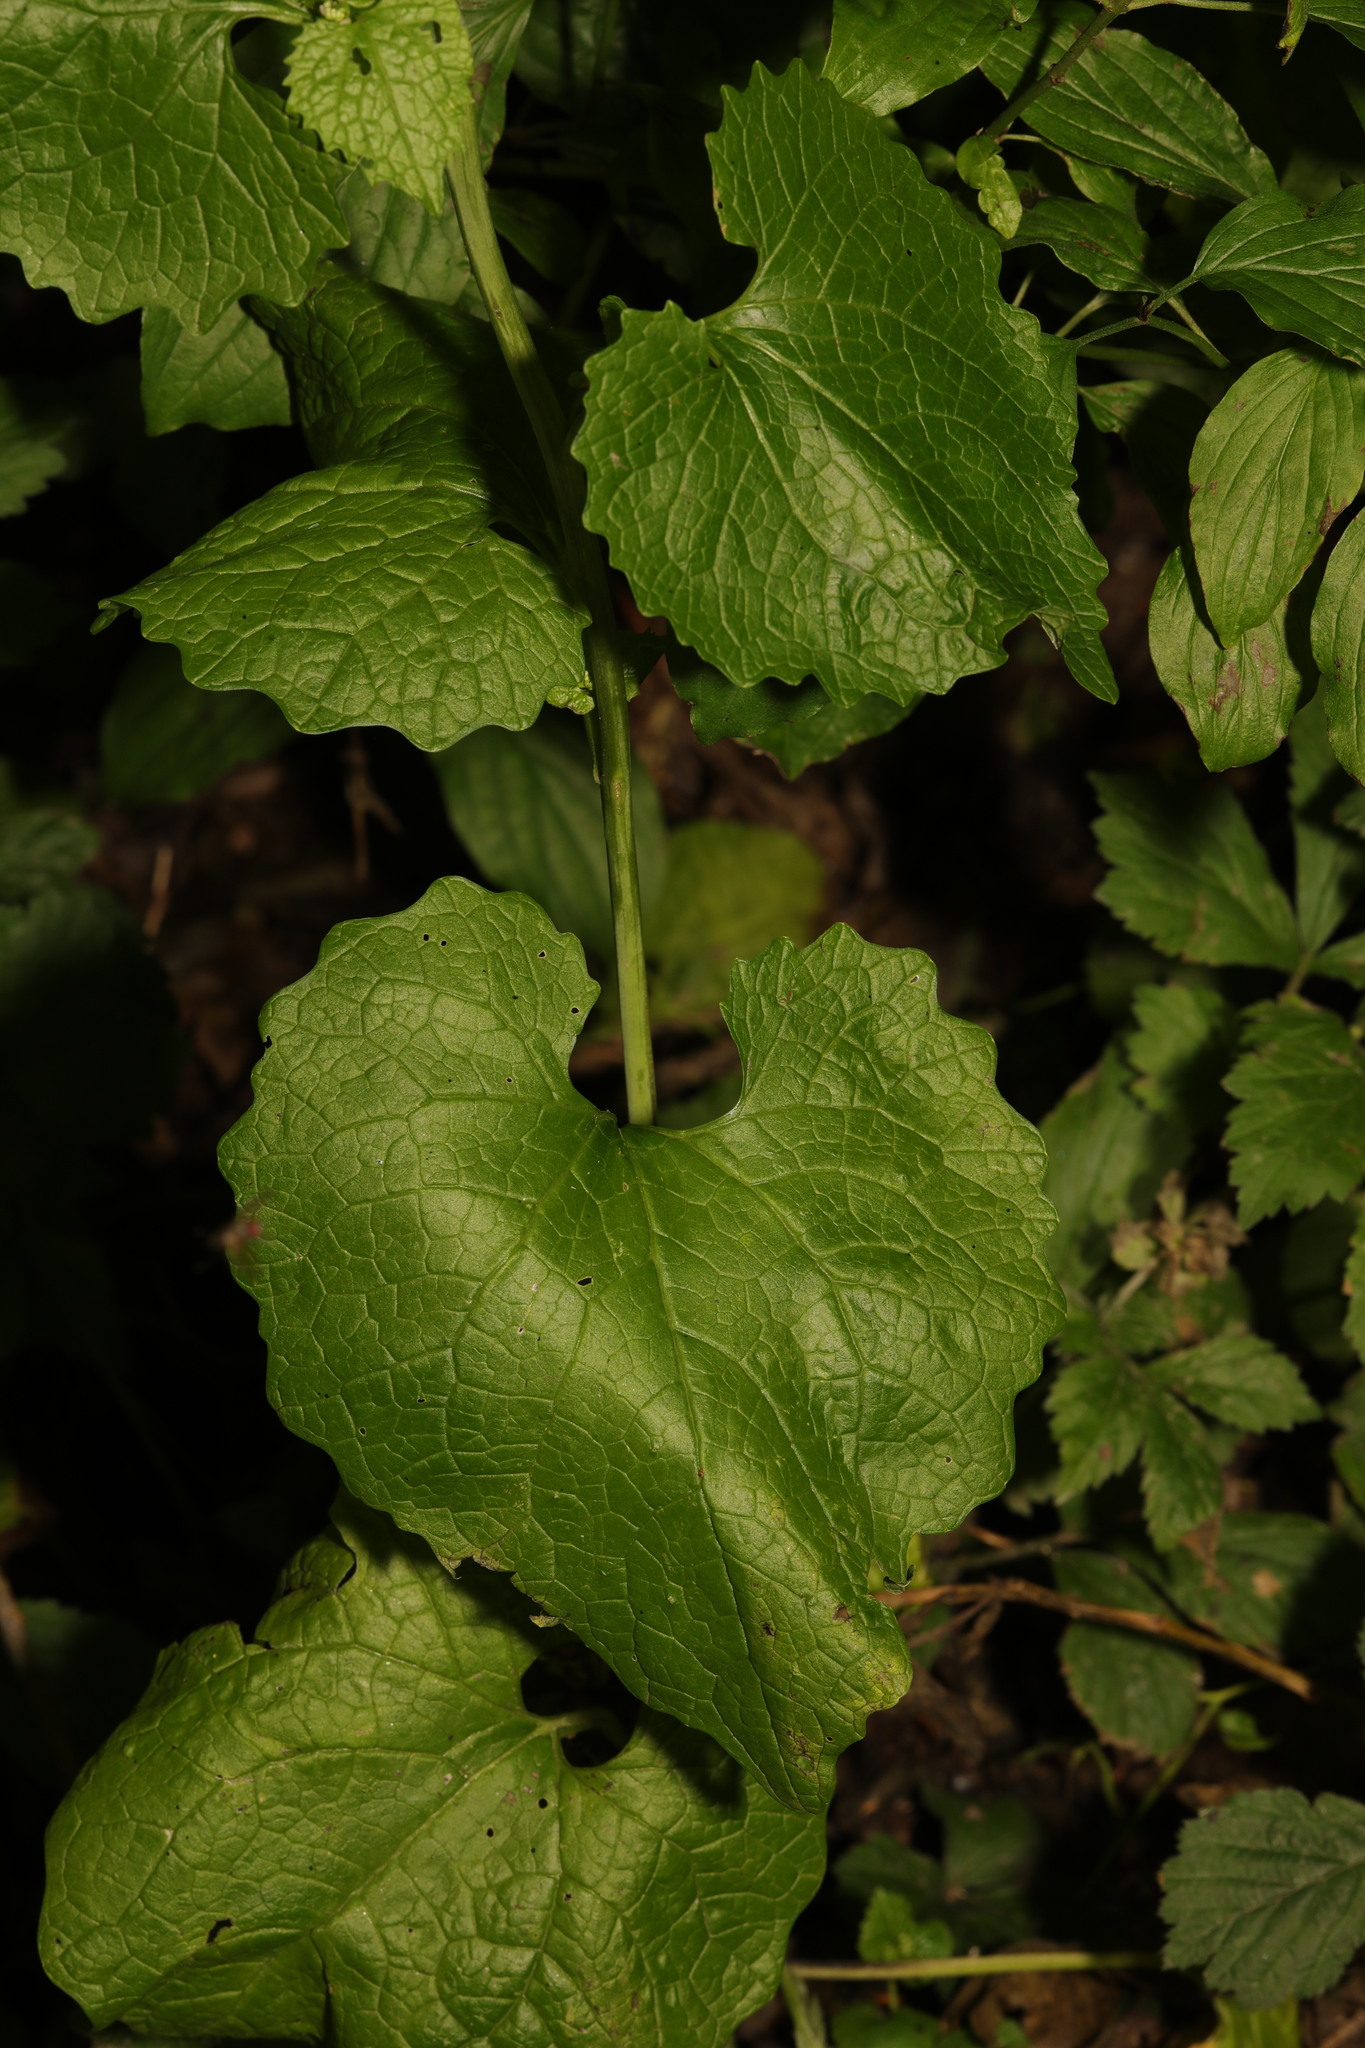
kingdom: Plantae
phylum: Tracheophyta
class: Magnoliopsida
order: Brassicales
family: Brassicaceae
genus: Alliaria
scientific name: Alliaria petiolata
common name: Garlic mustard
